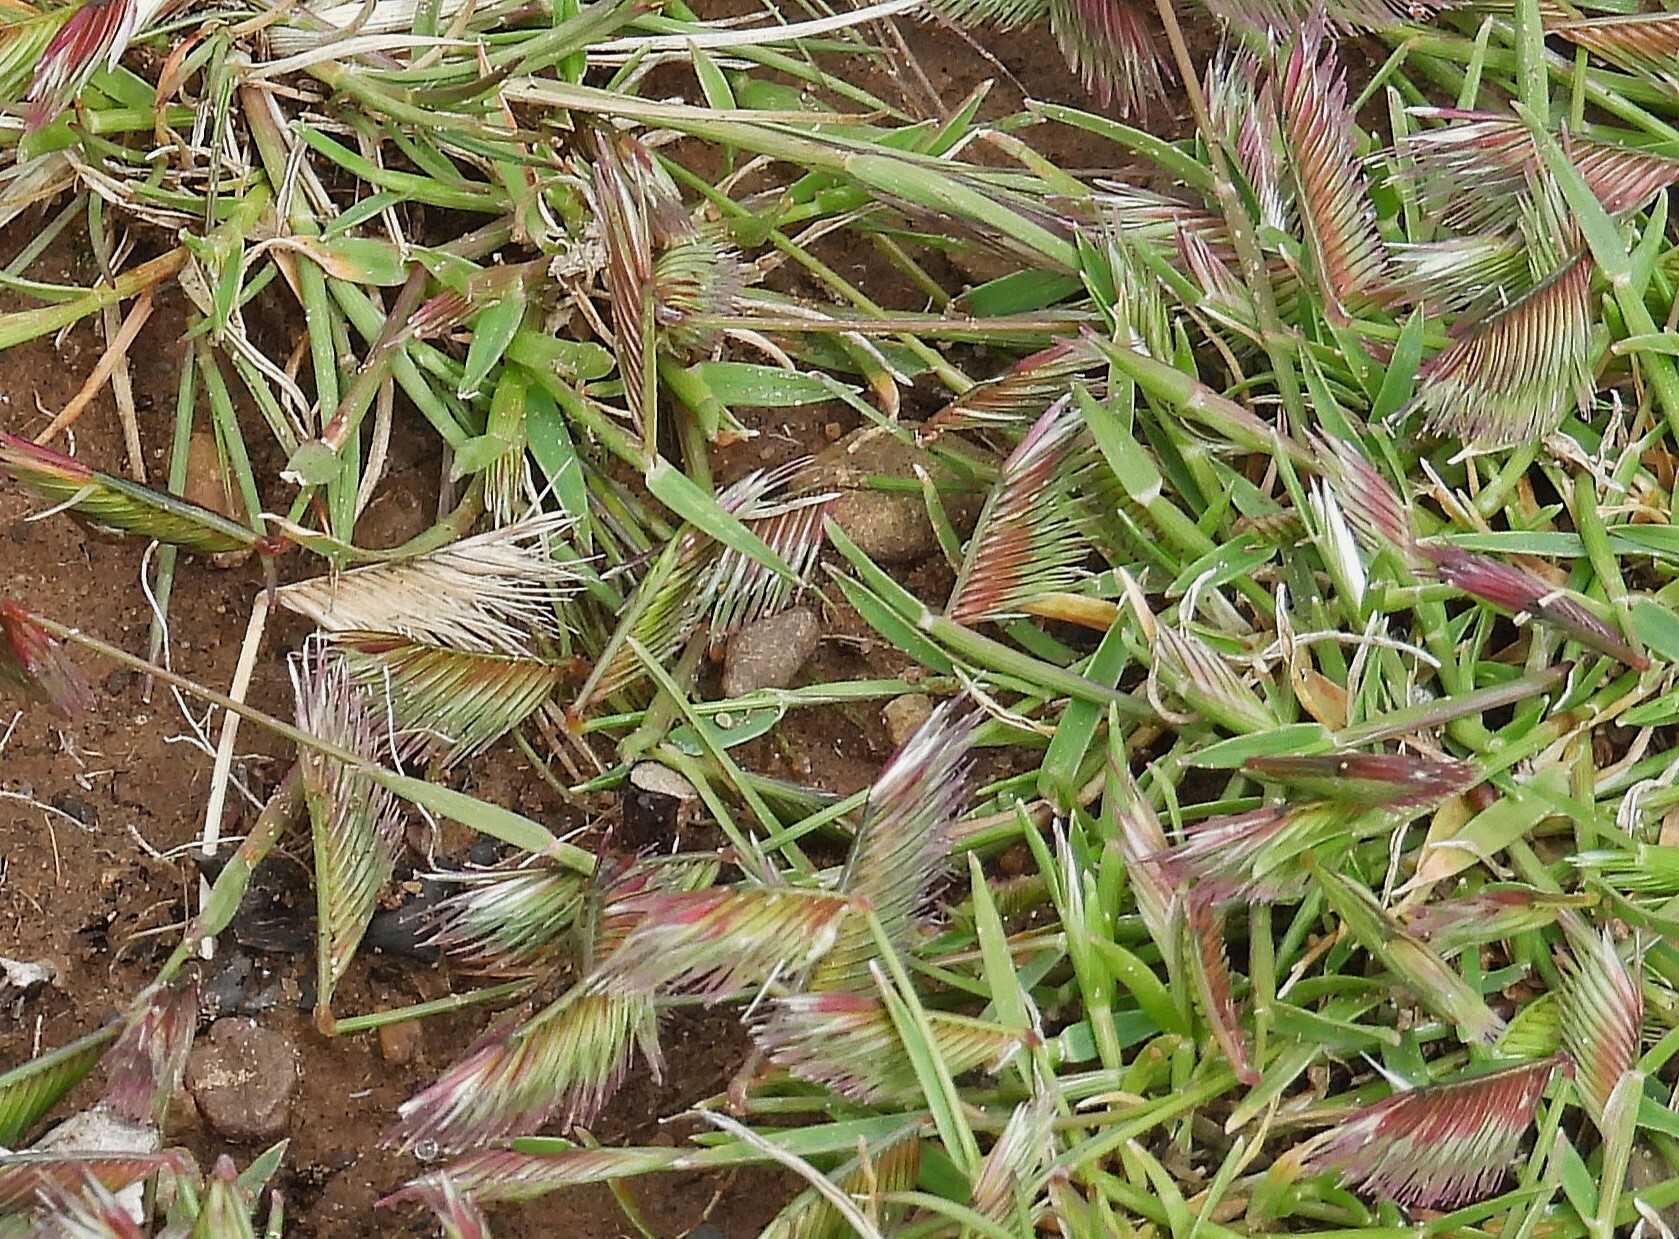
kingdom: Plantae
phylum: Tracheophyta
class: Liliopsida
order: Poales
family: Poaceae
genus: Bouteloua
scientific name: Bouteloua simplex
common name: Mat grama
